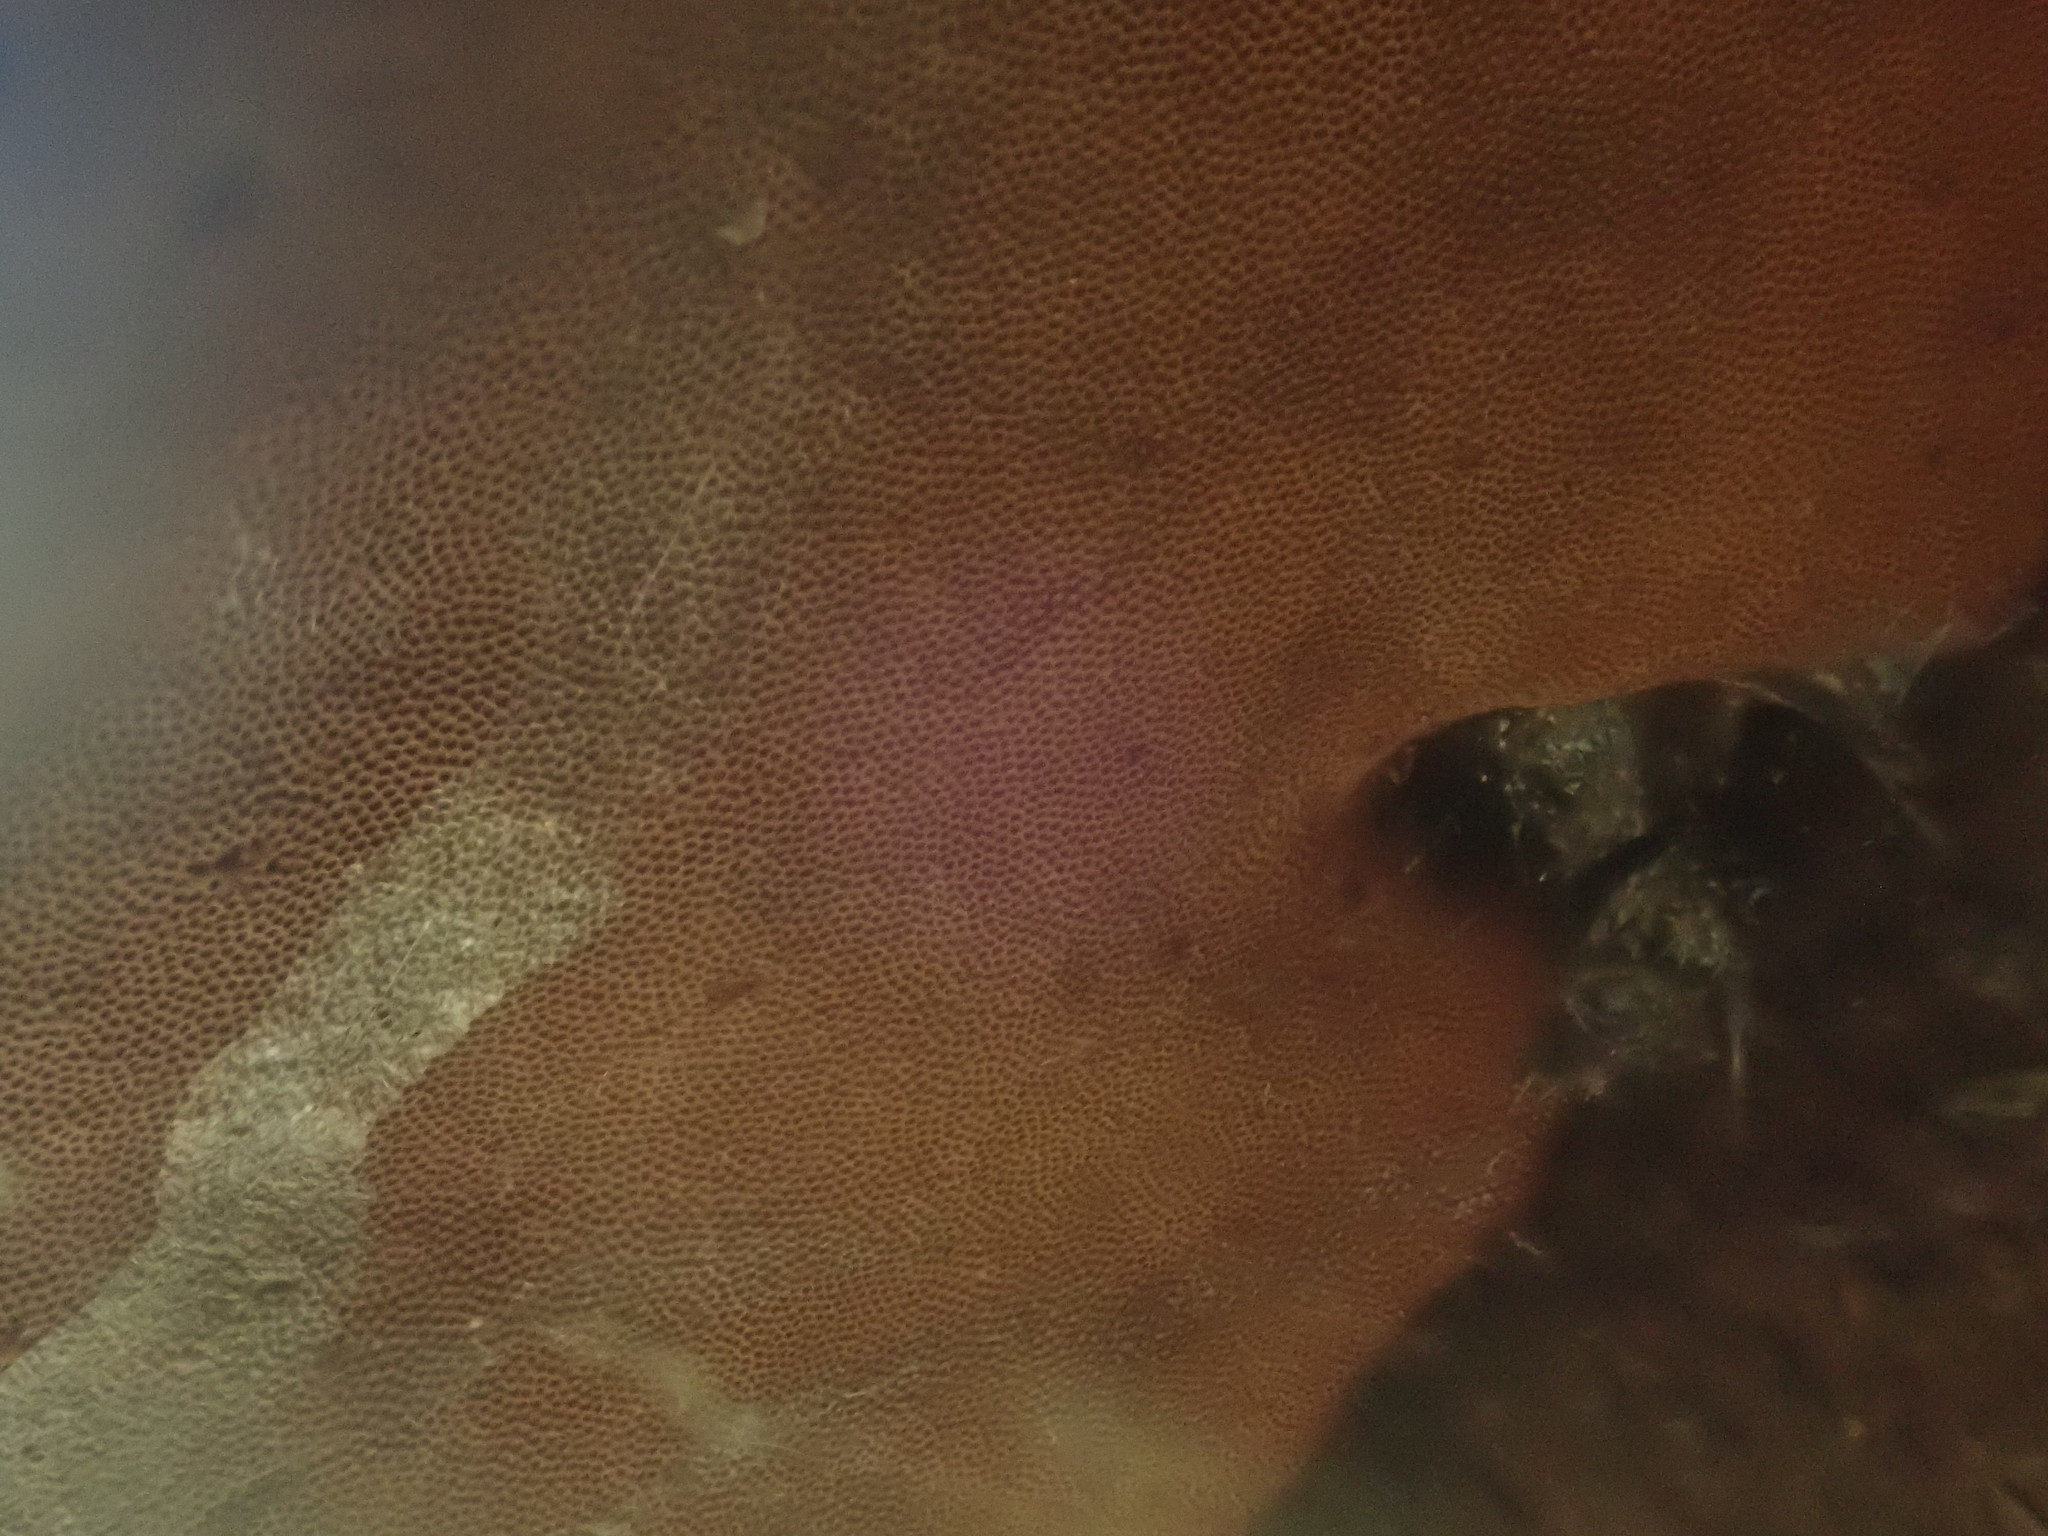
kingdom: Fungi
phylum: Basidiomycota
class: Agaricomycetes
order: Polyporales
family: Polyporaceae
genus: Fomes
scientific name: Fomes fomentarius
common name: Hoof fungus
